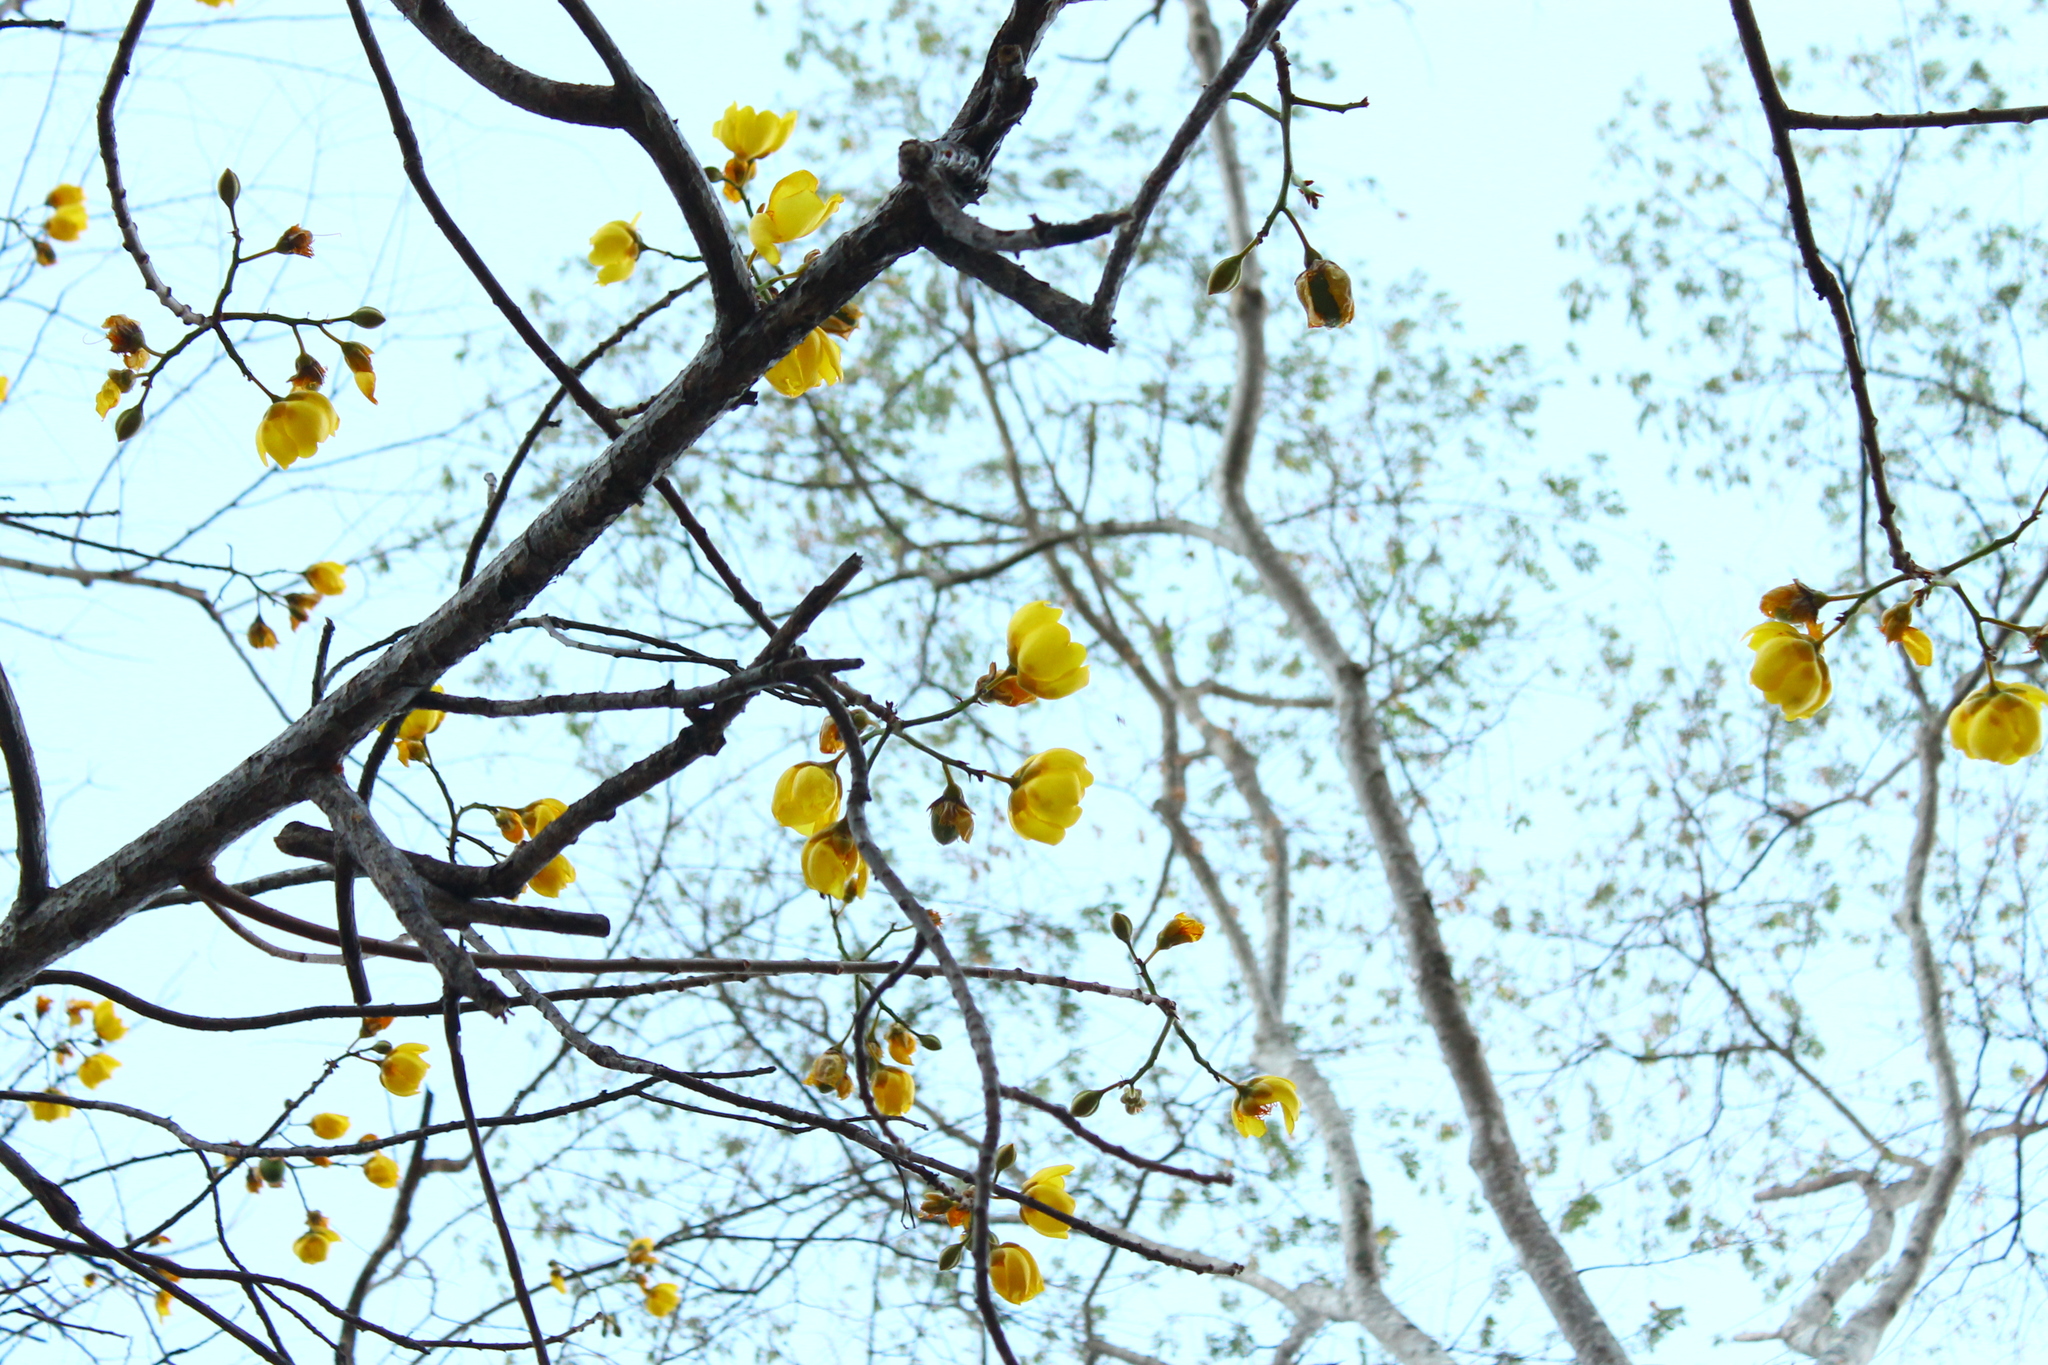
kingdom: Plantae
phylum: Tracheophyta
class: Magnoliopsida
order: Malvales
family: Cochlospermaceae
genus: Cochlospermum
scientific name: Cochlospermum vitifolium
